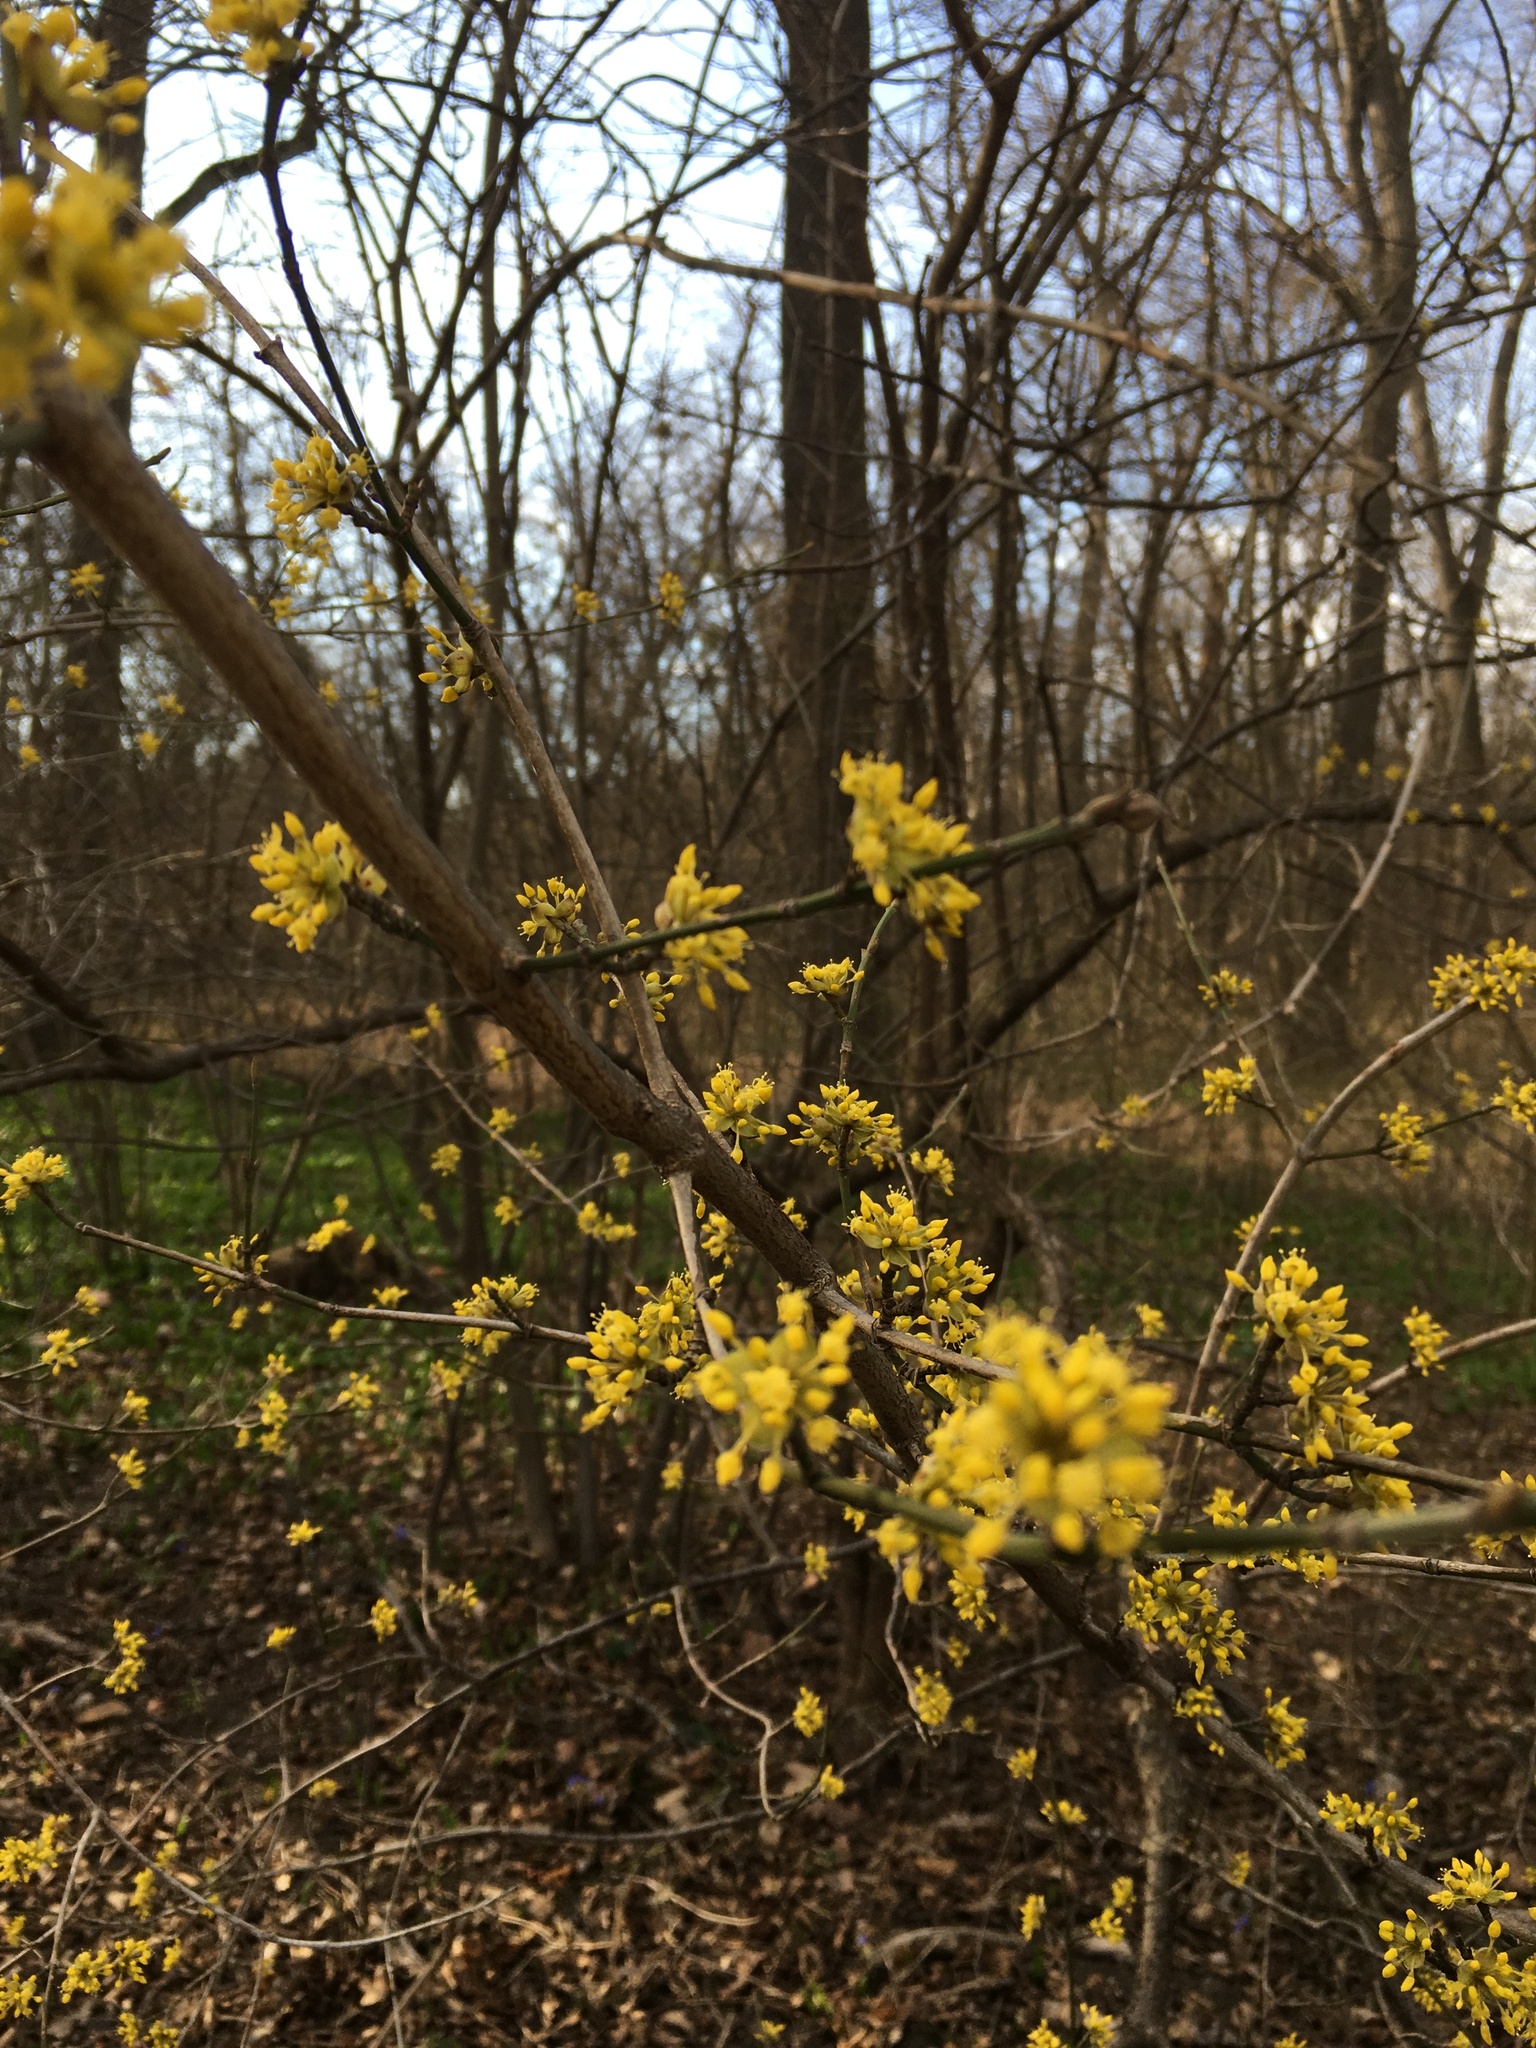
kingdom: Plantae
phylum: Tracheophyta
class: Magnoliopsida
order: Cornales
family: Cornaceae
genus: Cornus
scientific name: Cornus mas
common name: Cornelian-cherry
